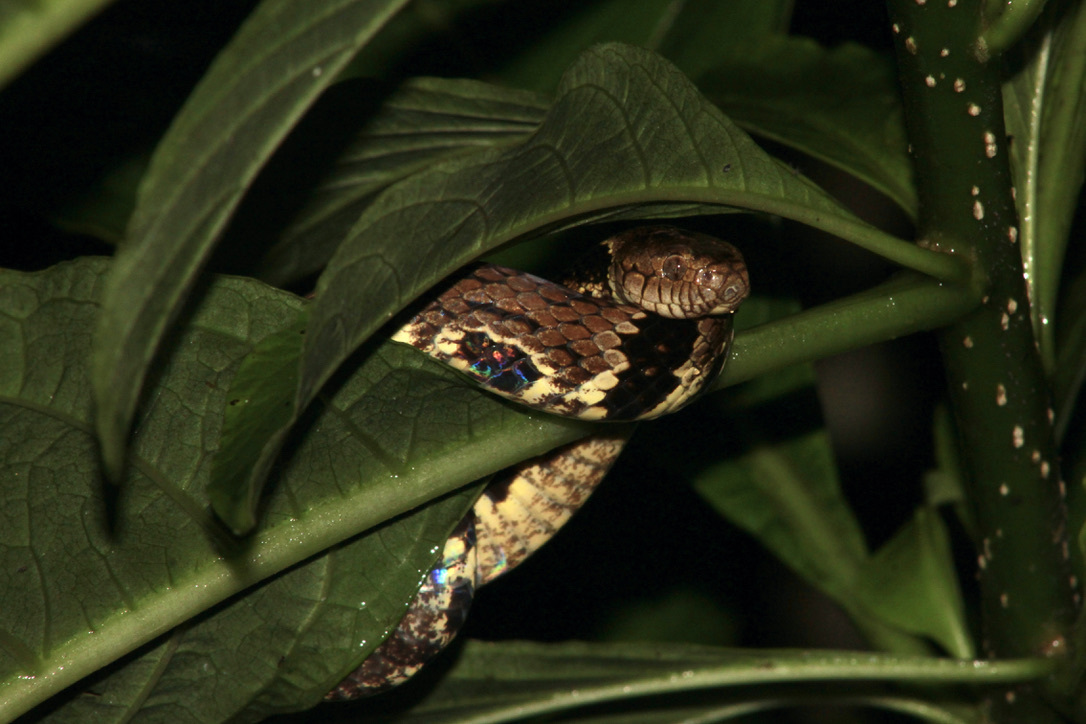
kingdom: Animalia
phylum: Chordata
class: Squamata
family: Colubridae
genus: Dipsas
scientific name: Dipsas trinitatis
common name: Trinidad snail-eater
